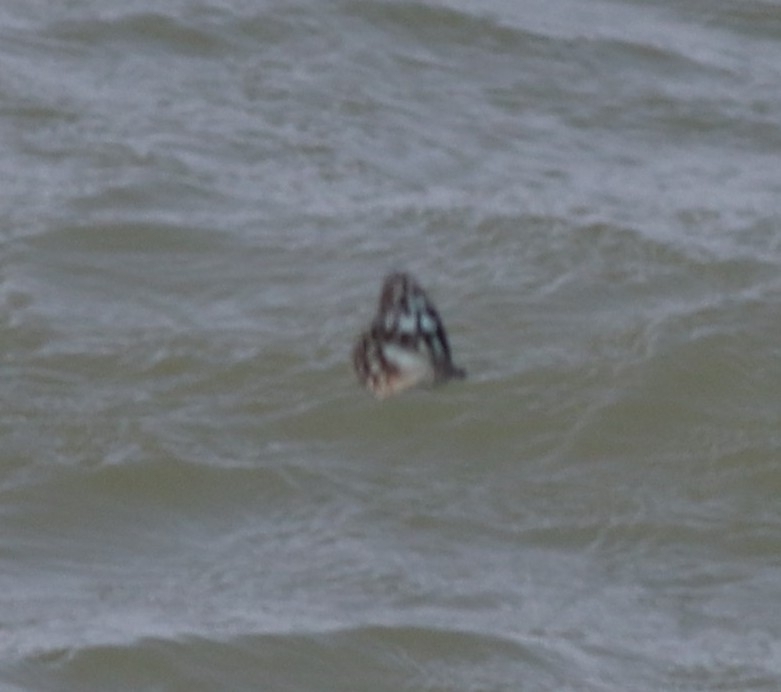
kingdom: Animalia
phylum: Arthropoda
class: Insecta
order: Lepidoptera
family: Nymphalidae
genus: Tirumala
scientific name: Tirumala limniace
